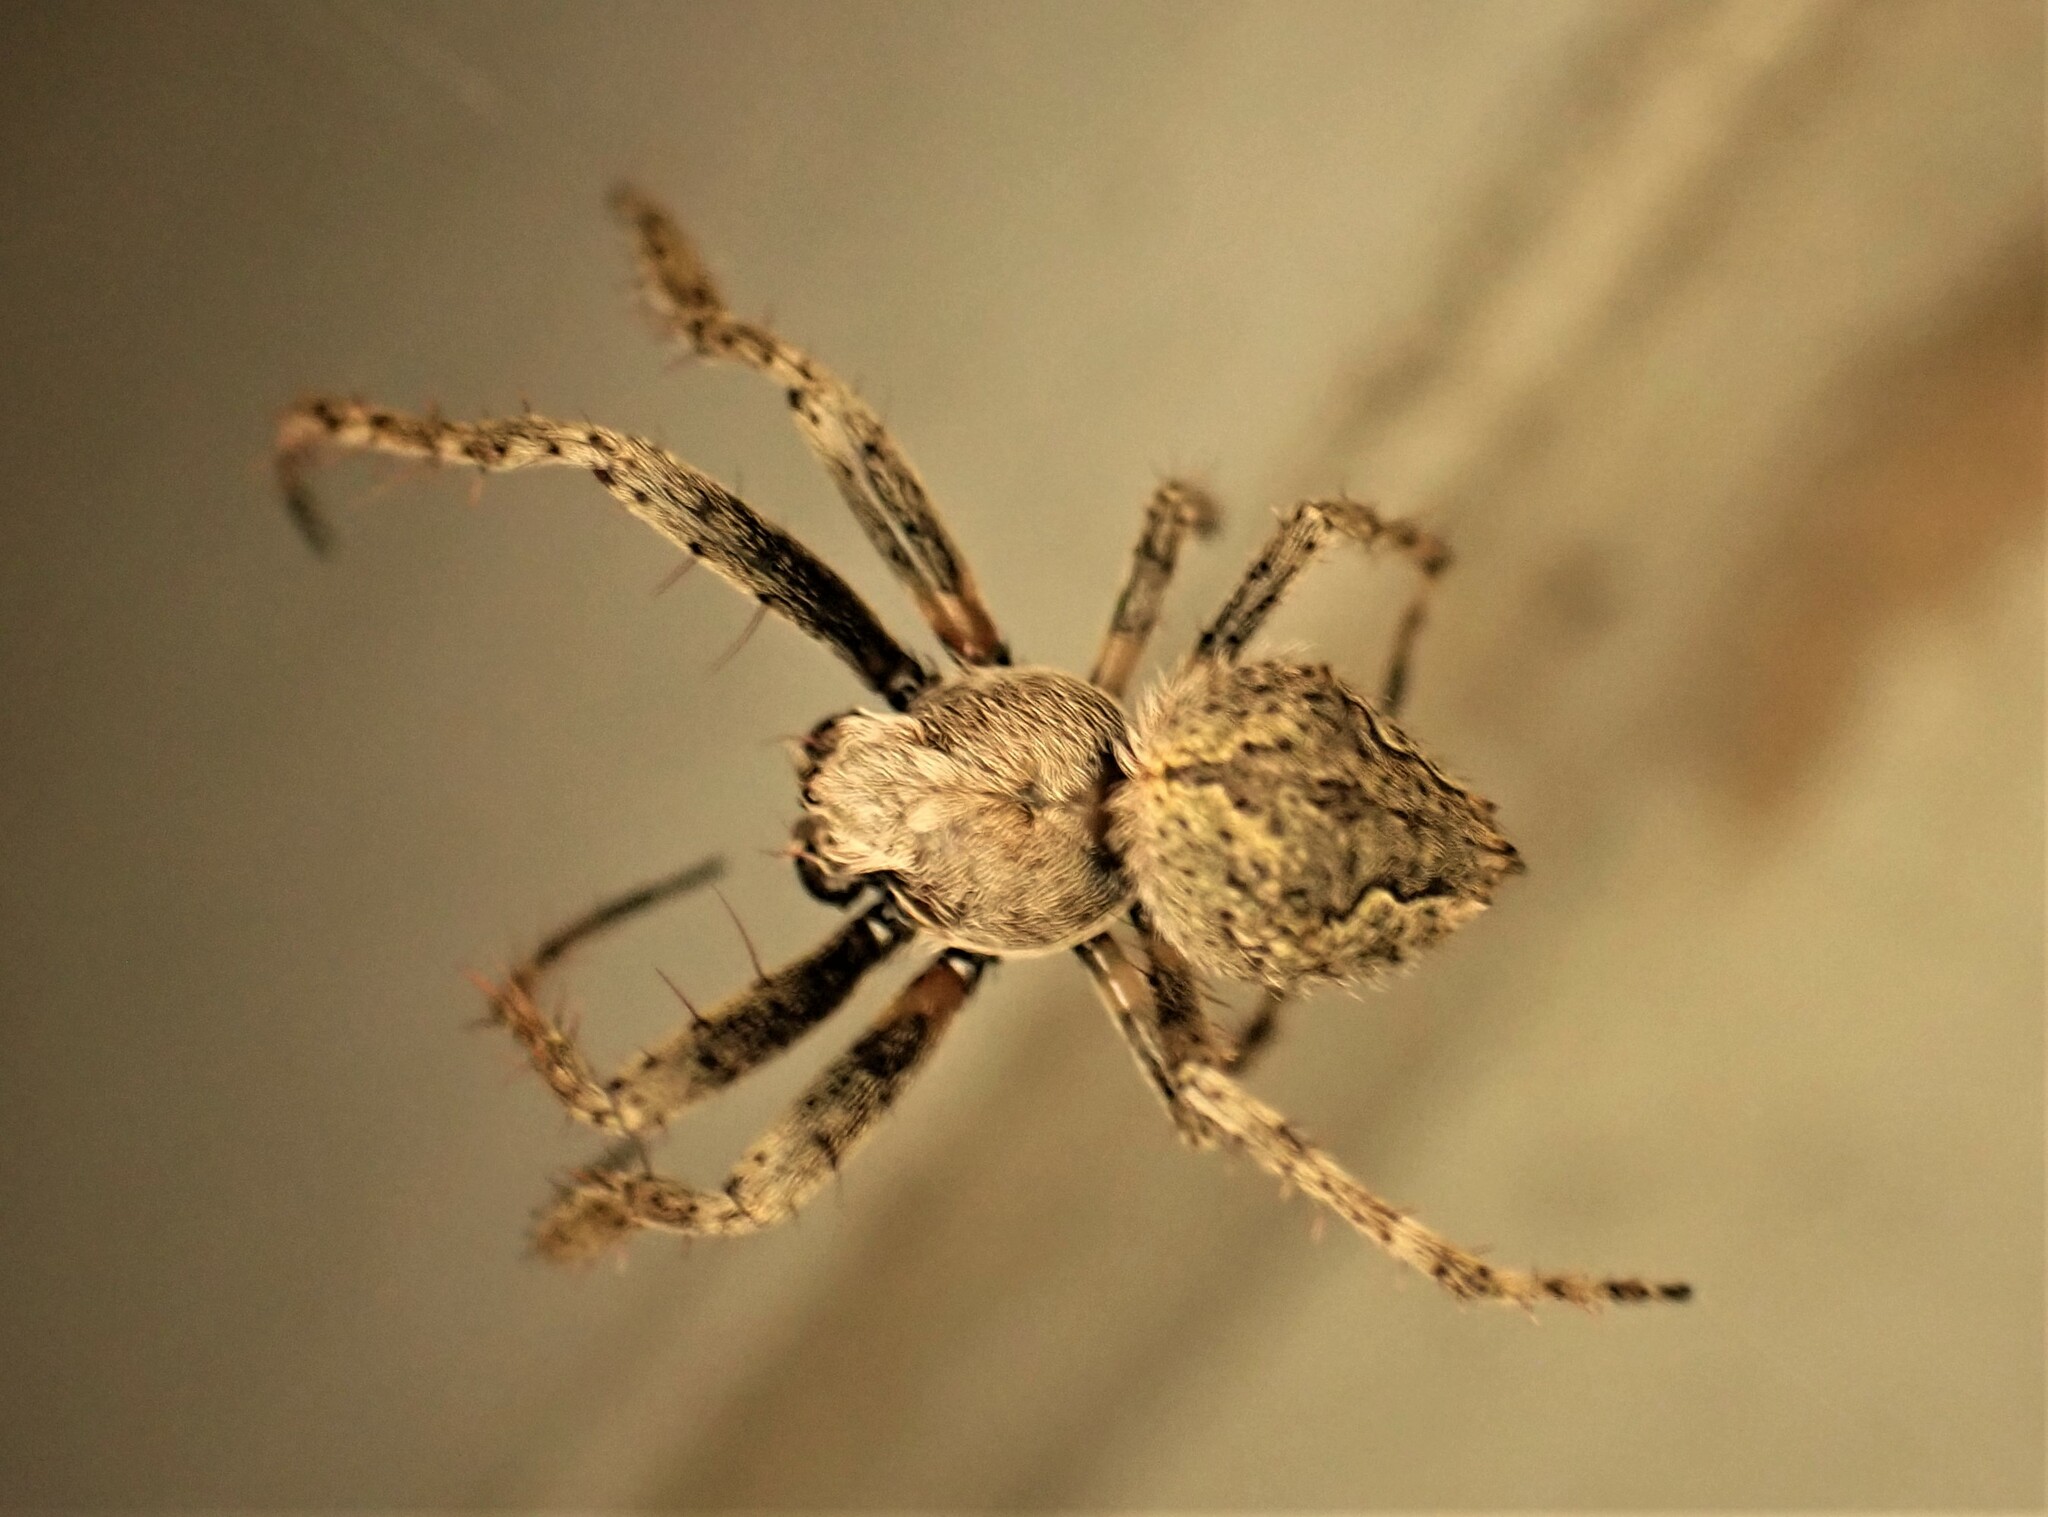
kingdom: Animalia
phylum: Arthropoda
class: Arachnida
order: Araneae
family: Araneidae
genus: Eriophora
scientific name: Eriophora pustulosa
